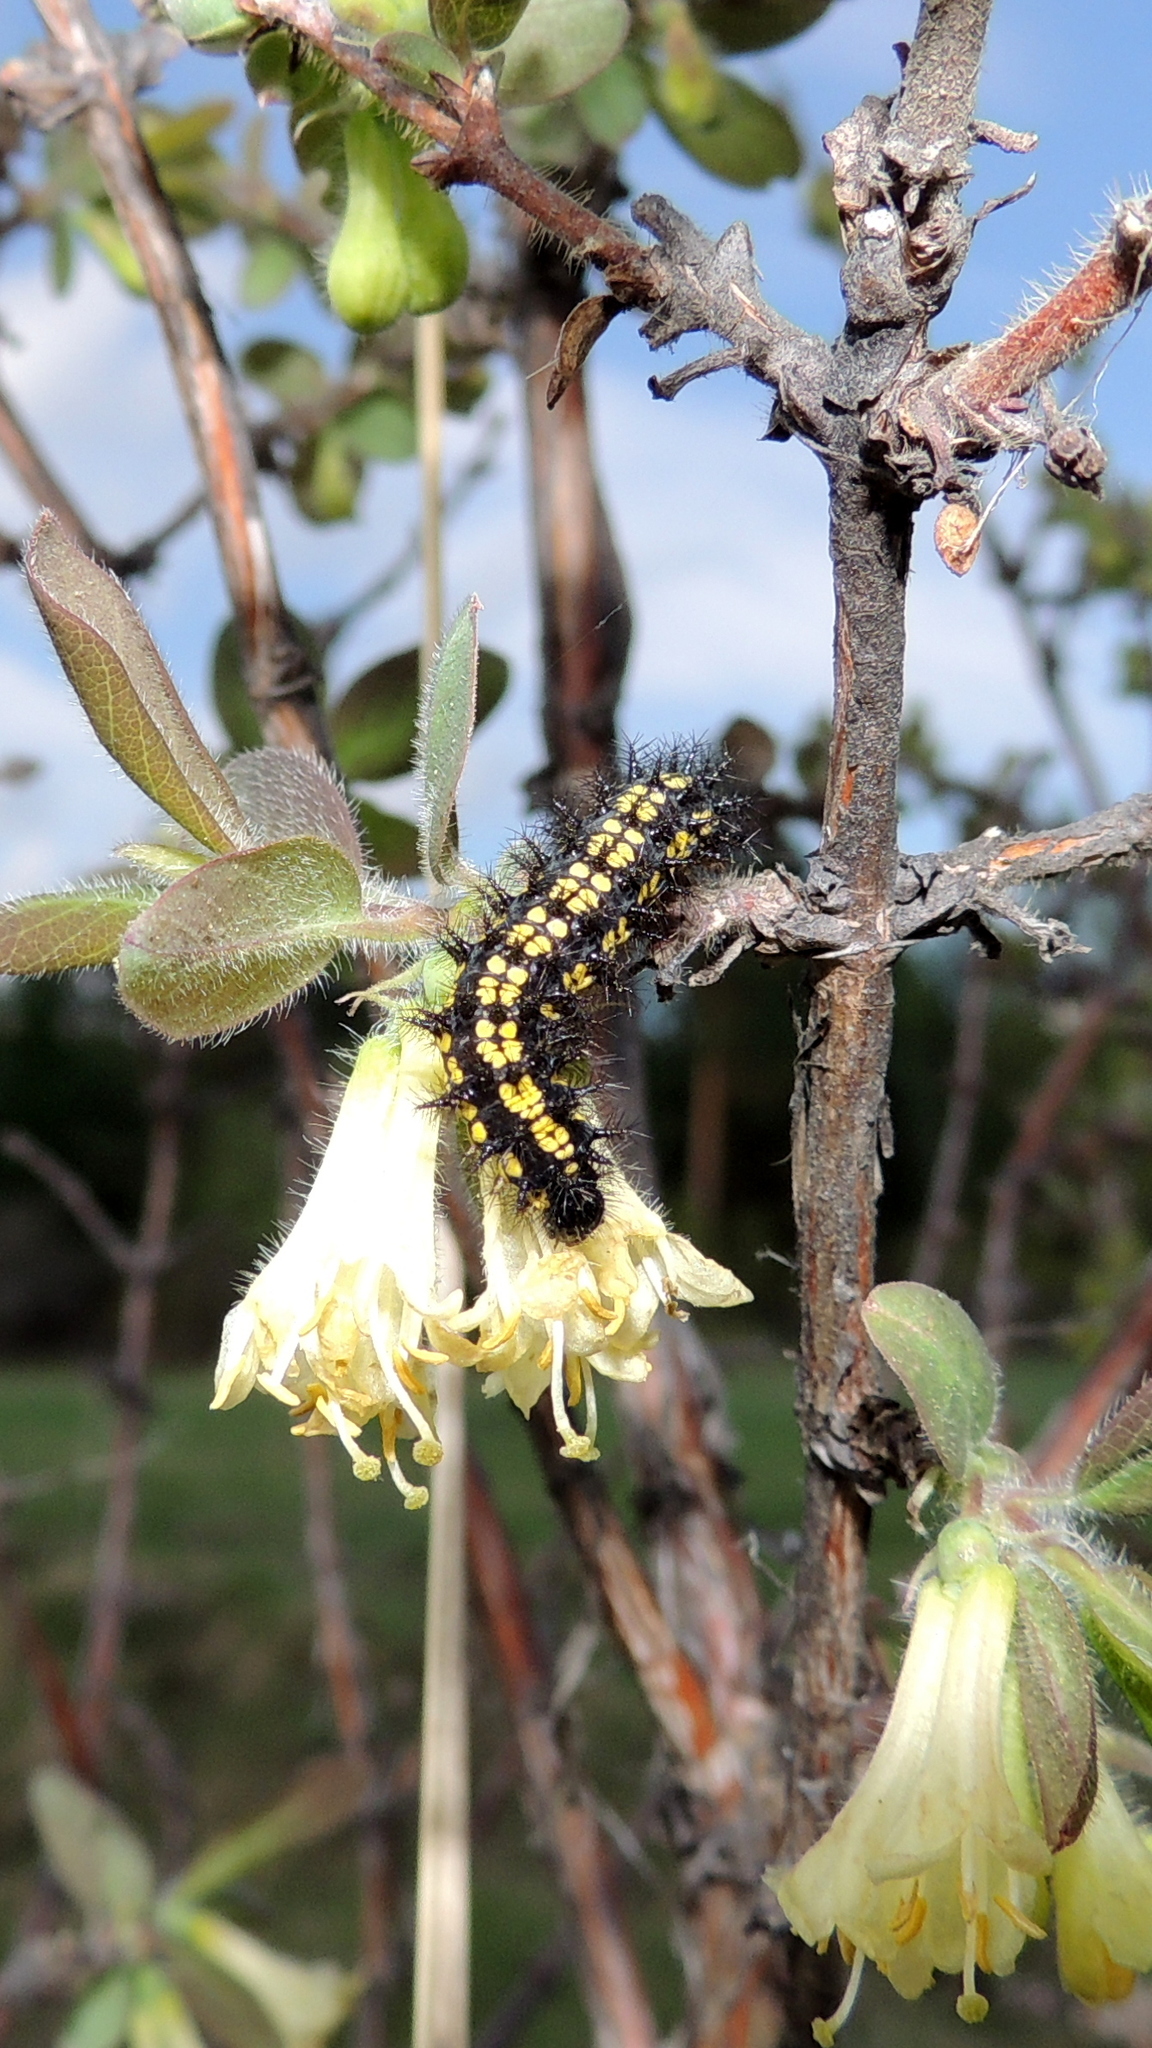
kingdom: Animalia
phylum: Arthropoda
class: Insecta
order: Lepidoptera
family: Nymphalidae
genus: Euphydryas
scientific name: Euphydryas maturna
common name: Scarce fritillary
